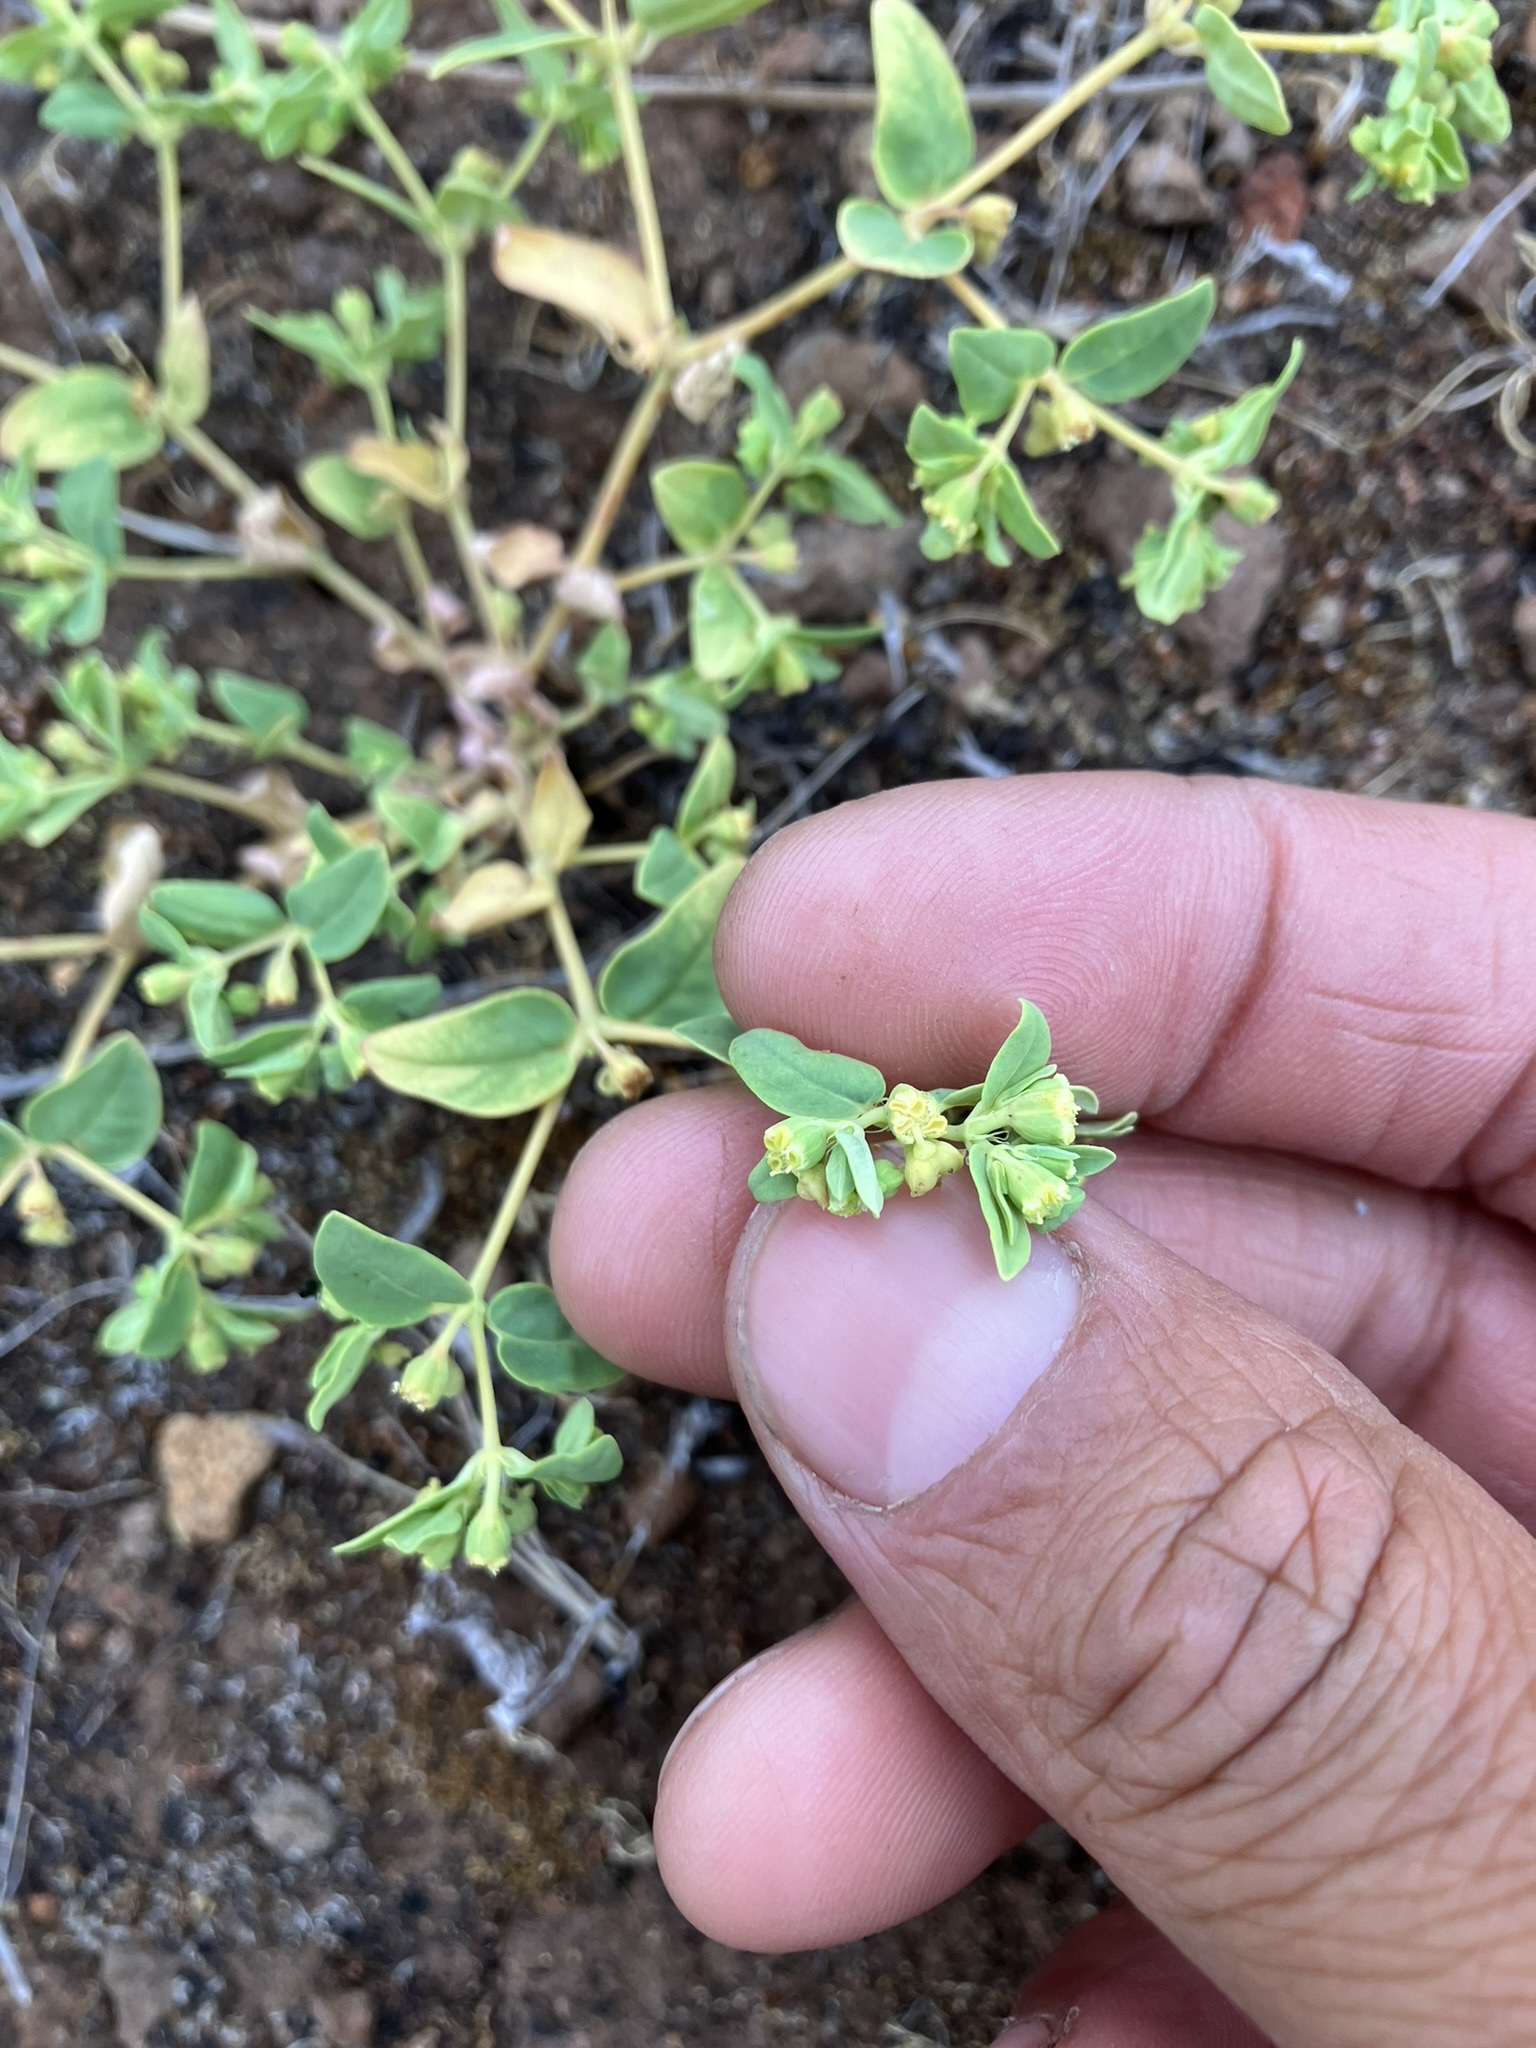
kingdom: Plantae
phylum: Tracheophyta
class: Magnoliopsida
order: Malpighiales
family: Euphorbiaceae
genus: Euphorbia
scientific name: Euphorbia ocellata
